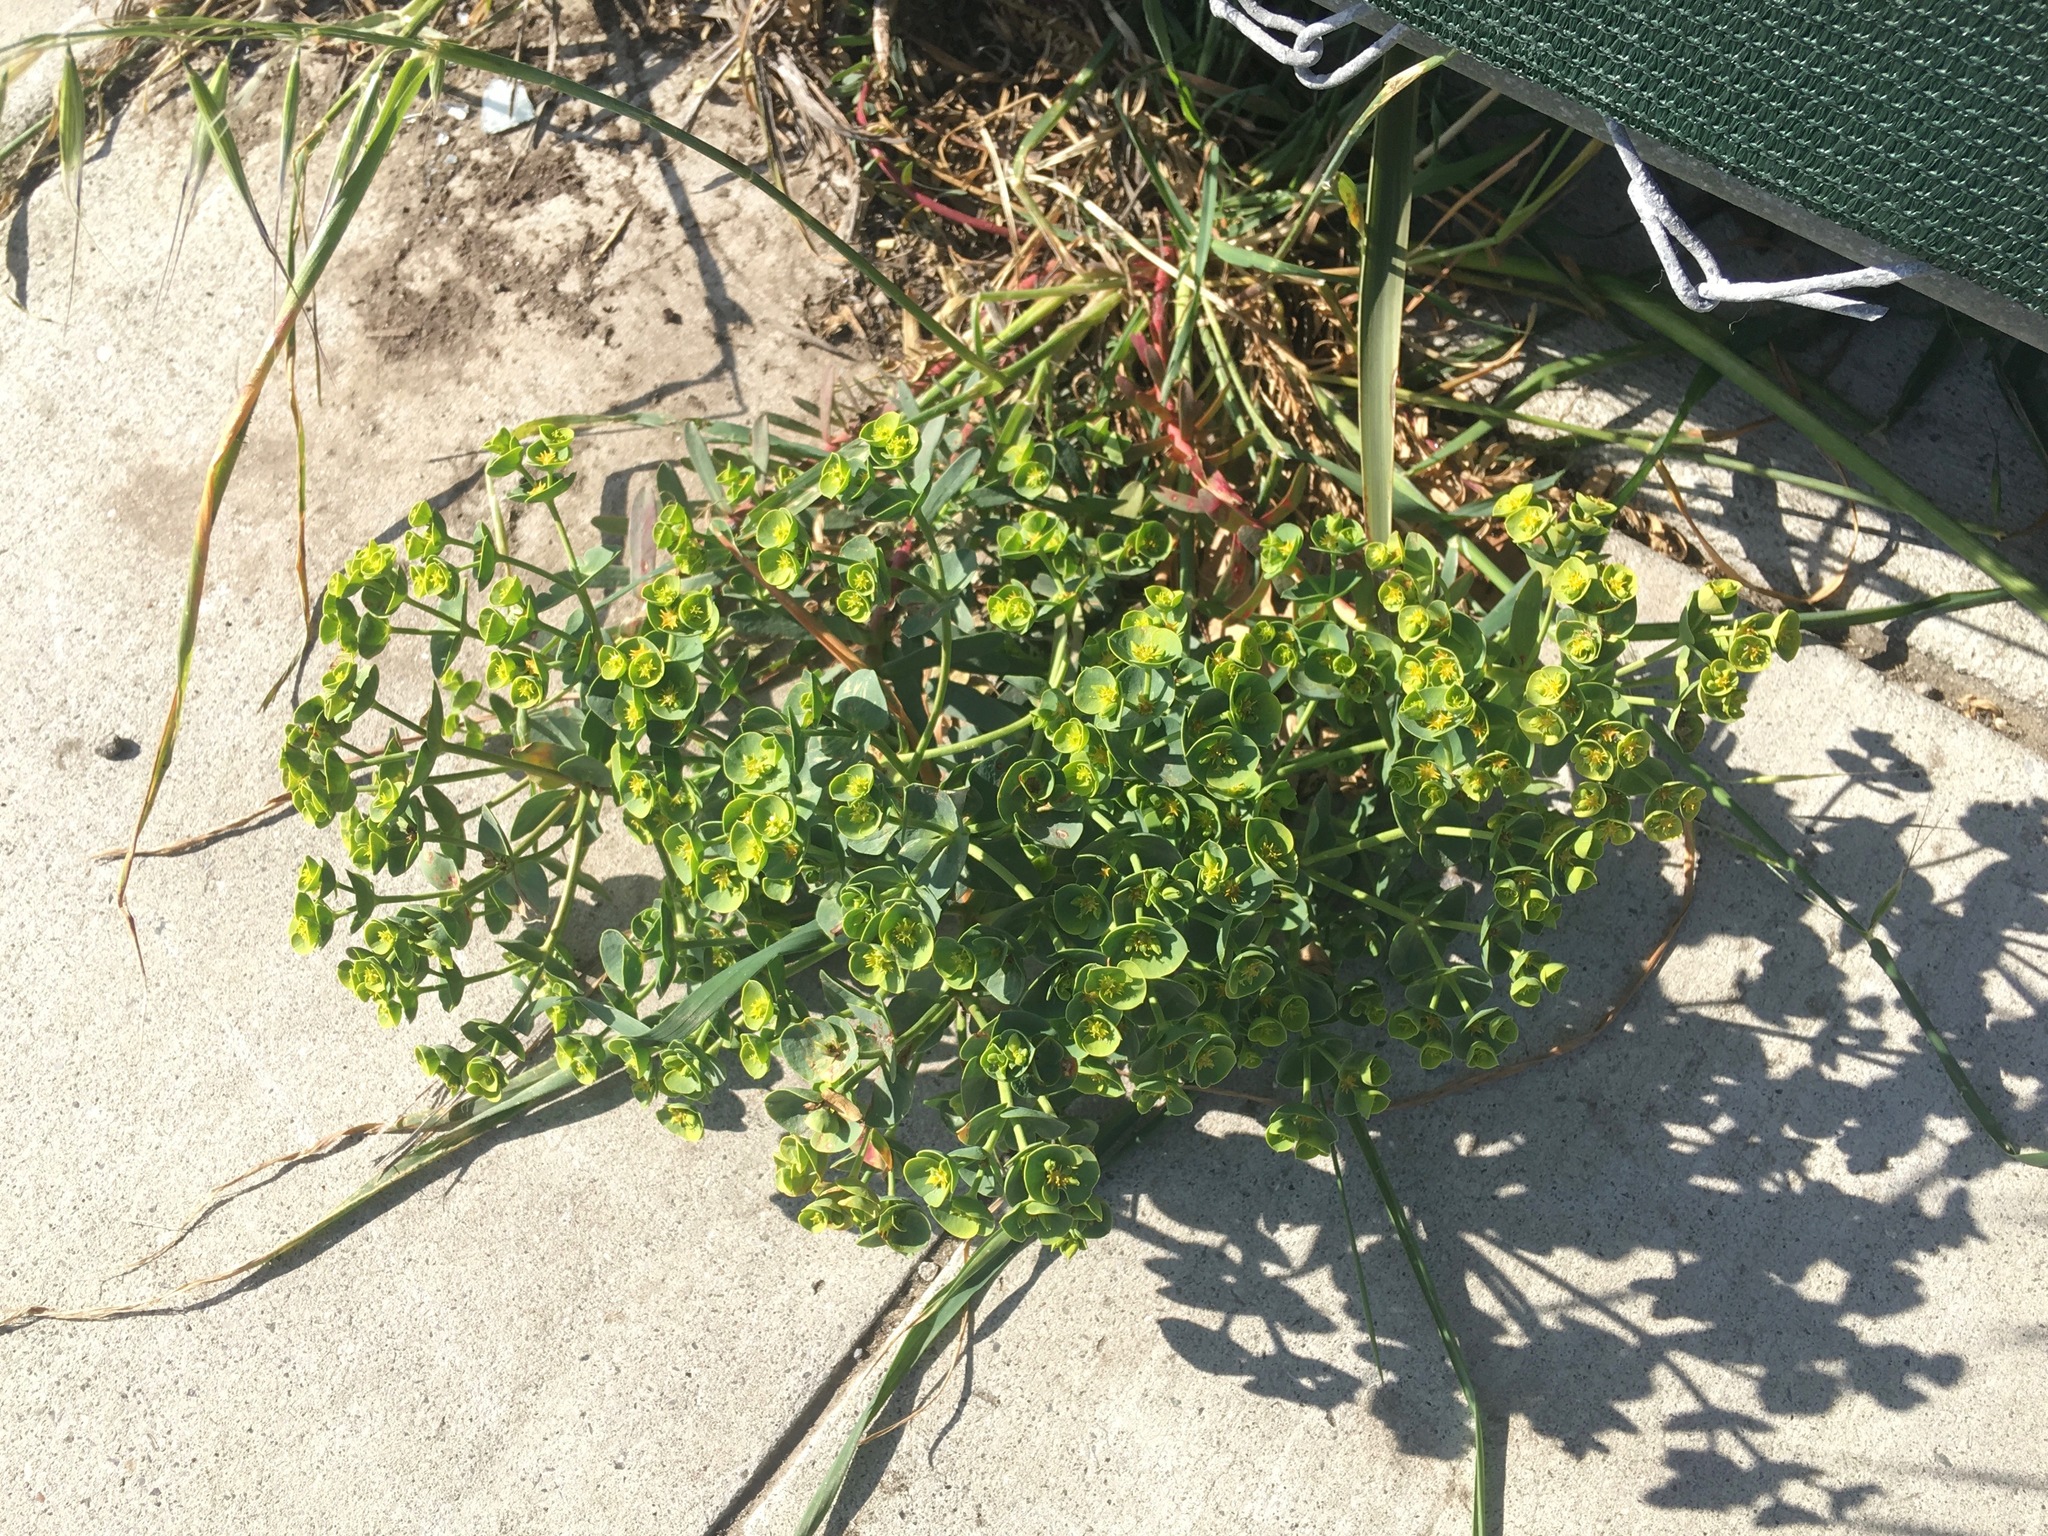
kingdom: Plantae
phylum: Tracheophyta
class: Magnoliopsida
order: Malpighiales
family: Euphorbiaceae
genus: Euphorbia
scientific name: Euphorbia segetalis
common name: Corn spurge
